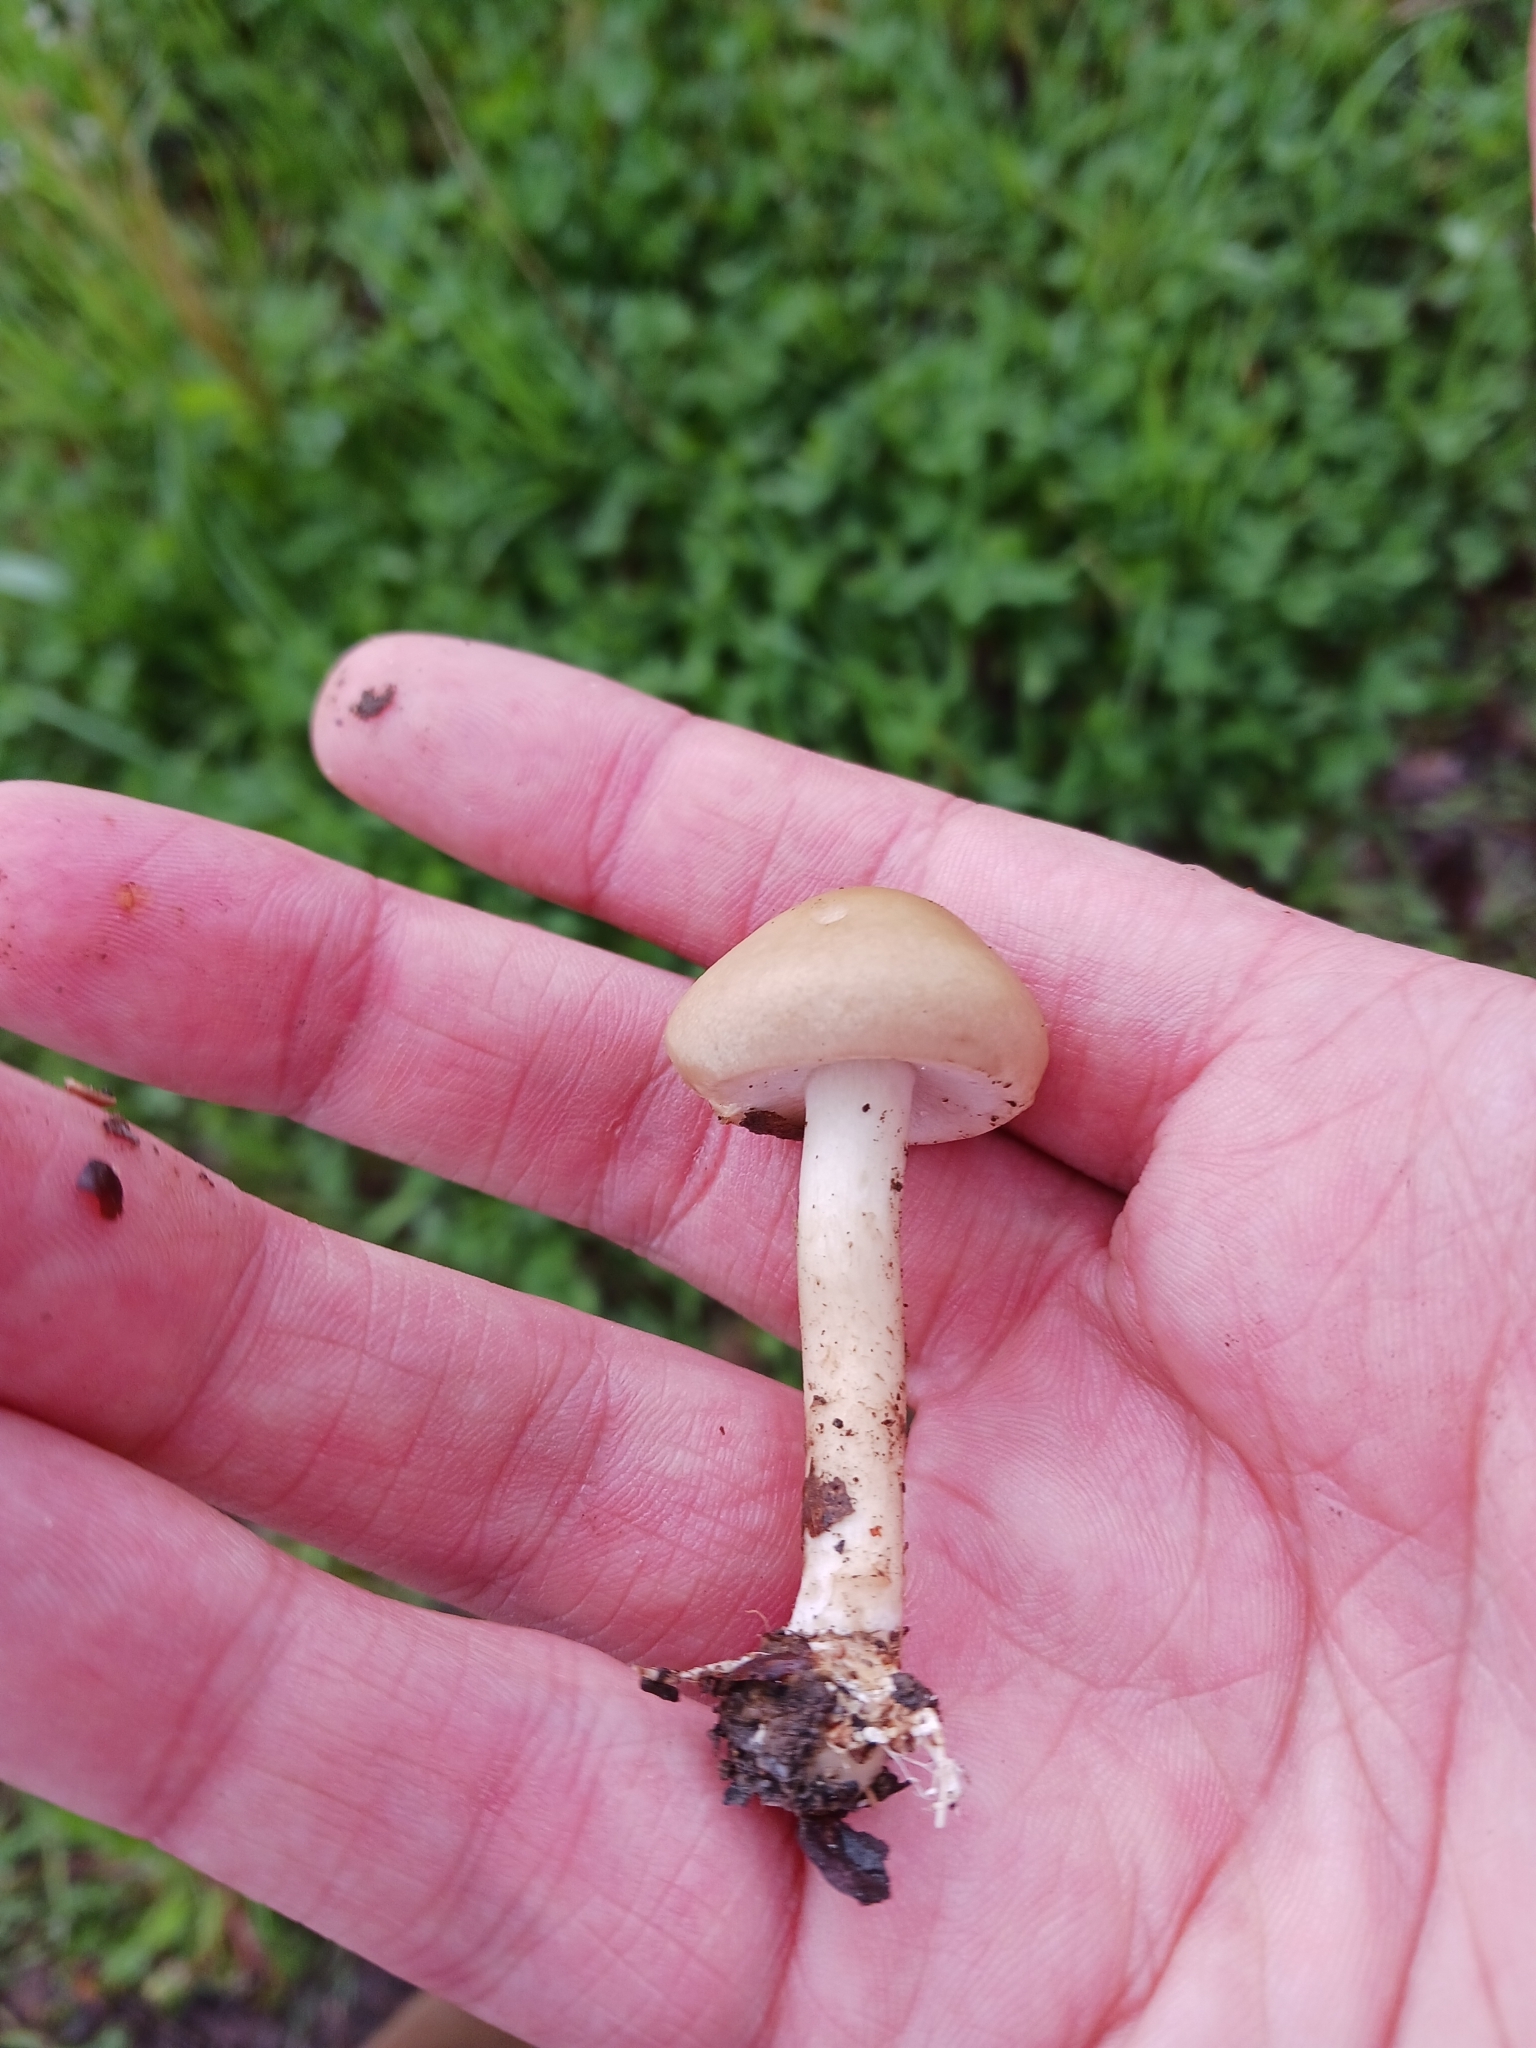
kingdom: Fungi
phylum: Basidiomycota
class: Agaricomycetes
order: Agaricales
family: Strophariaceae
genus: Agrocybe
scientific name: Agrocybe praecox
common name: Spring fieldcap
